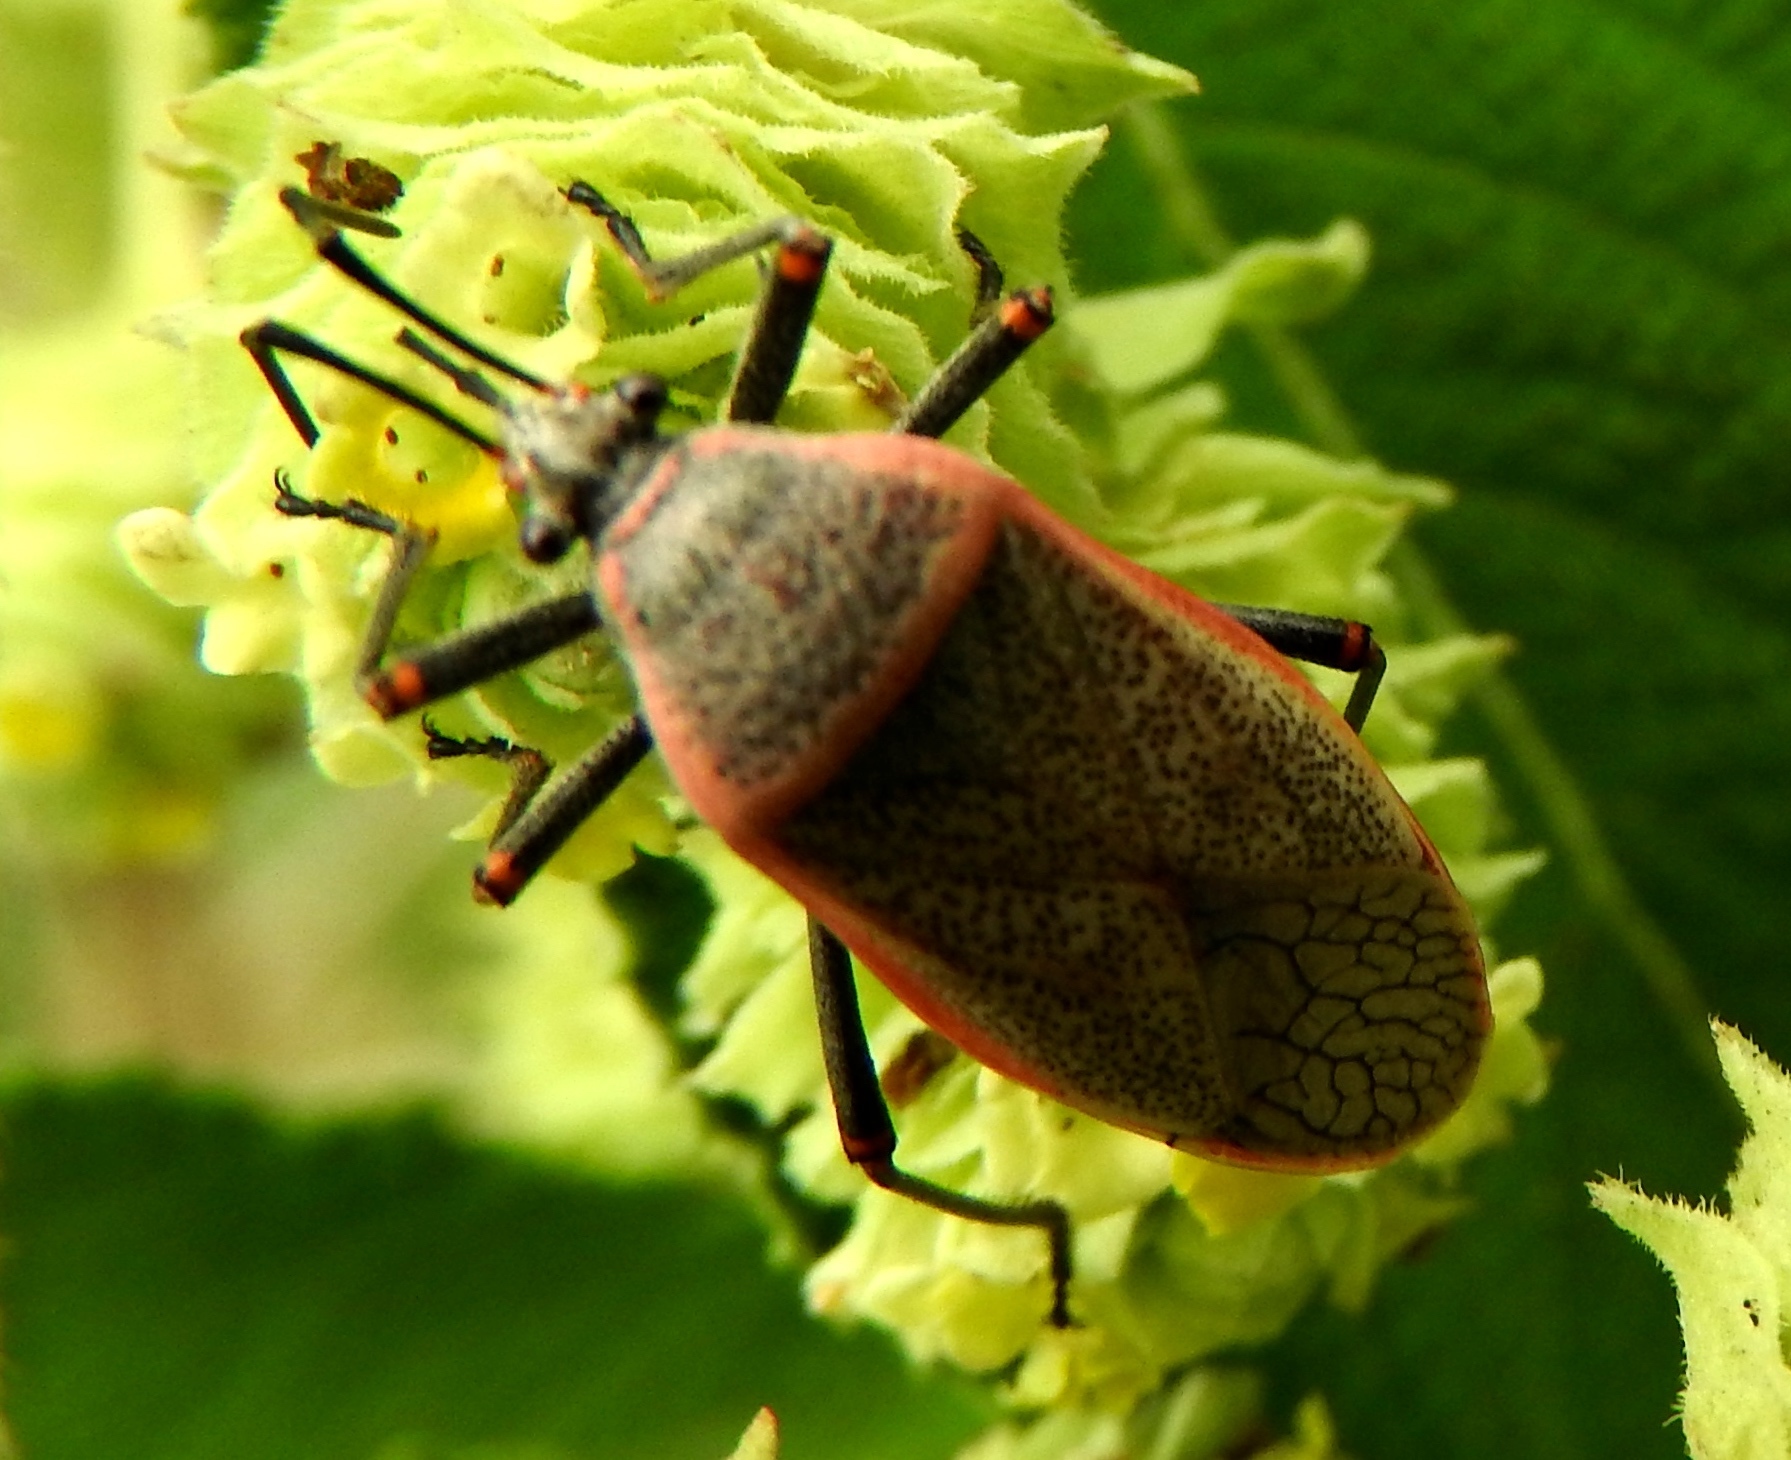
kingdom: Animalia
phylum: Arthropoda
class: Insecta
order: Hemiptera
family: Largidae
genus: Largus
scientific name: Largus
